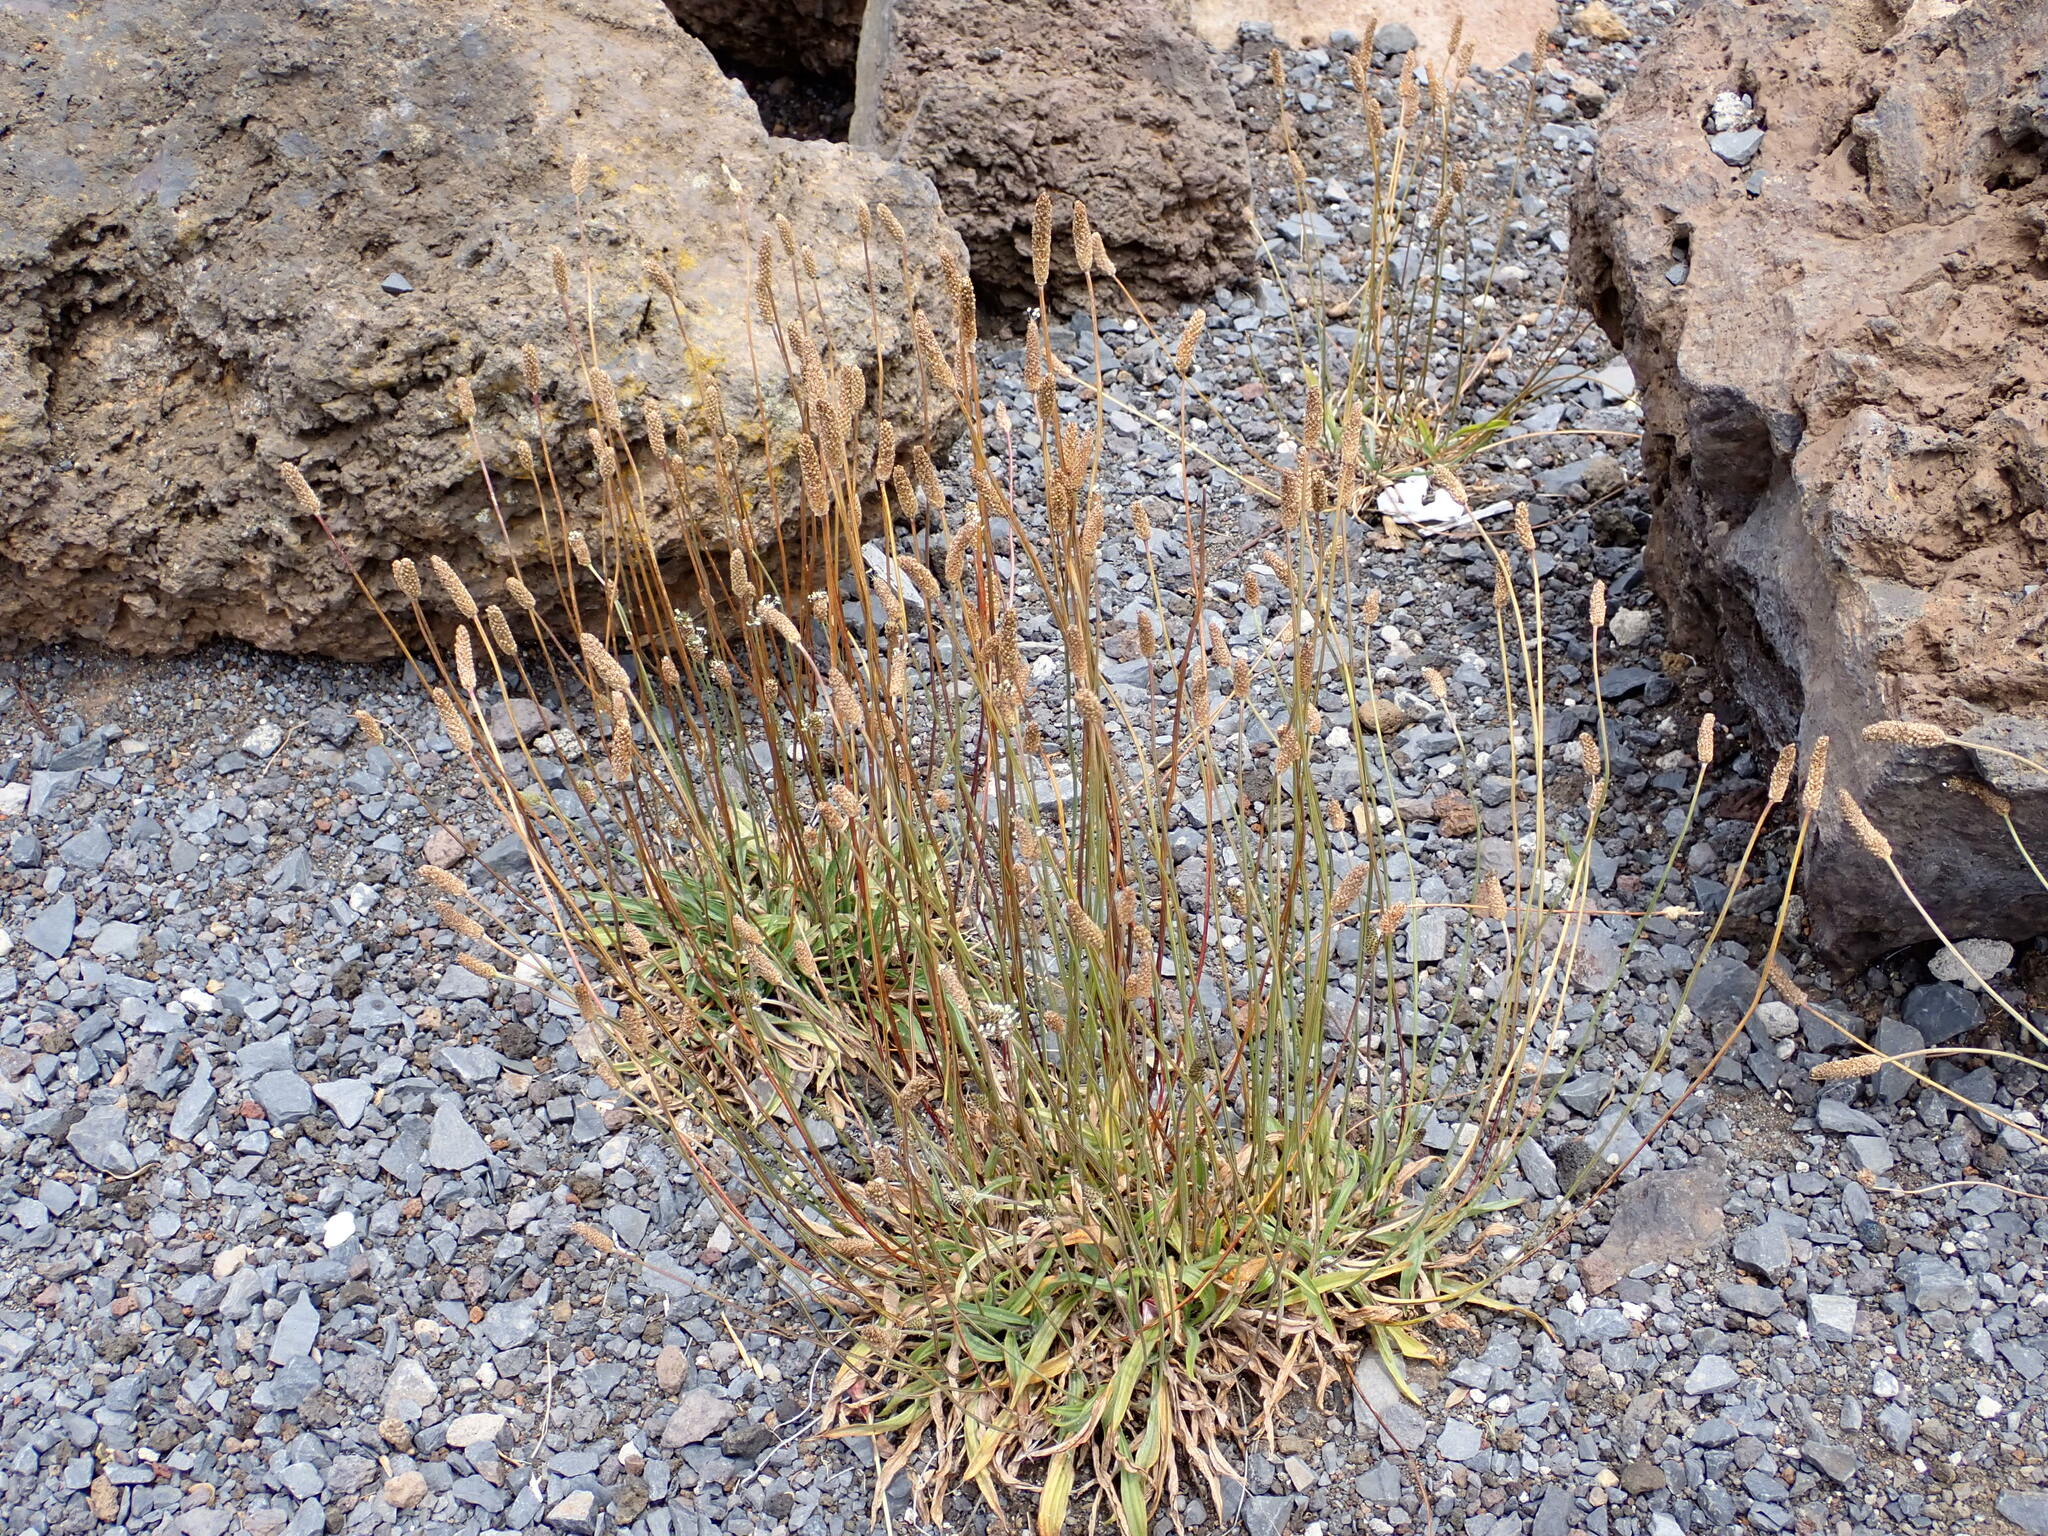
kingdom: Plantae
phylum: Tracheophyta
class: Magnoliopsida
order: Lamiales
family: Plantaginaceae
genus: Plantago
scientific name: Plantago lanceolata
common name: Ribwort plantain
